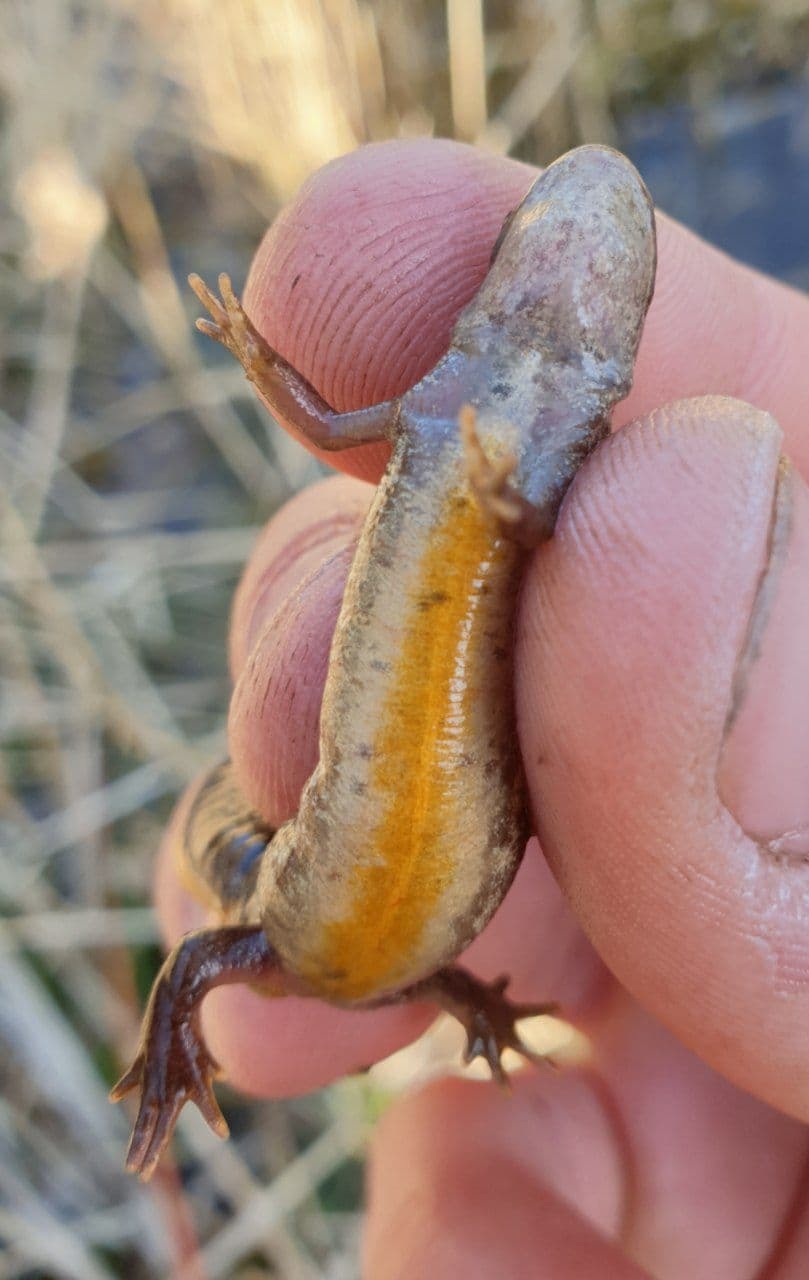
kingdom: Animalia
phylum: Chordata
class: Amphibia
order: Caudata
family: Salamandridae
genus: Lissotriton
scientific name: Lissotriton vulgaris
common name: Smooth newt
